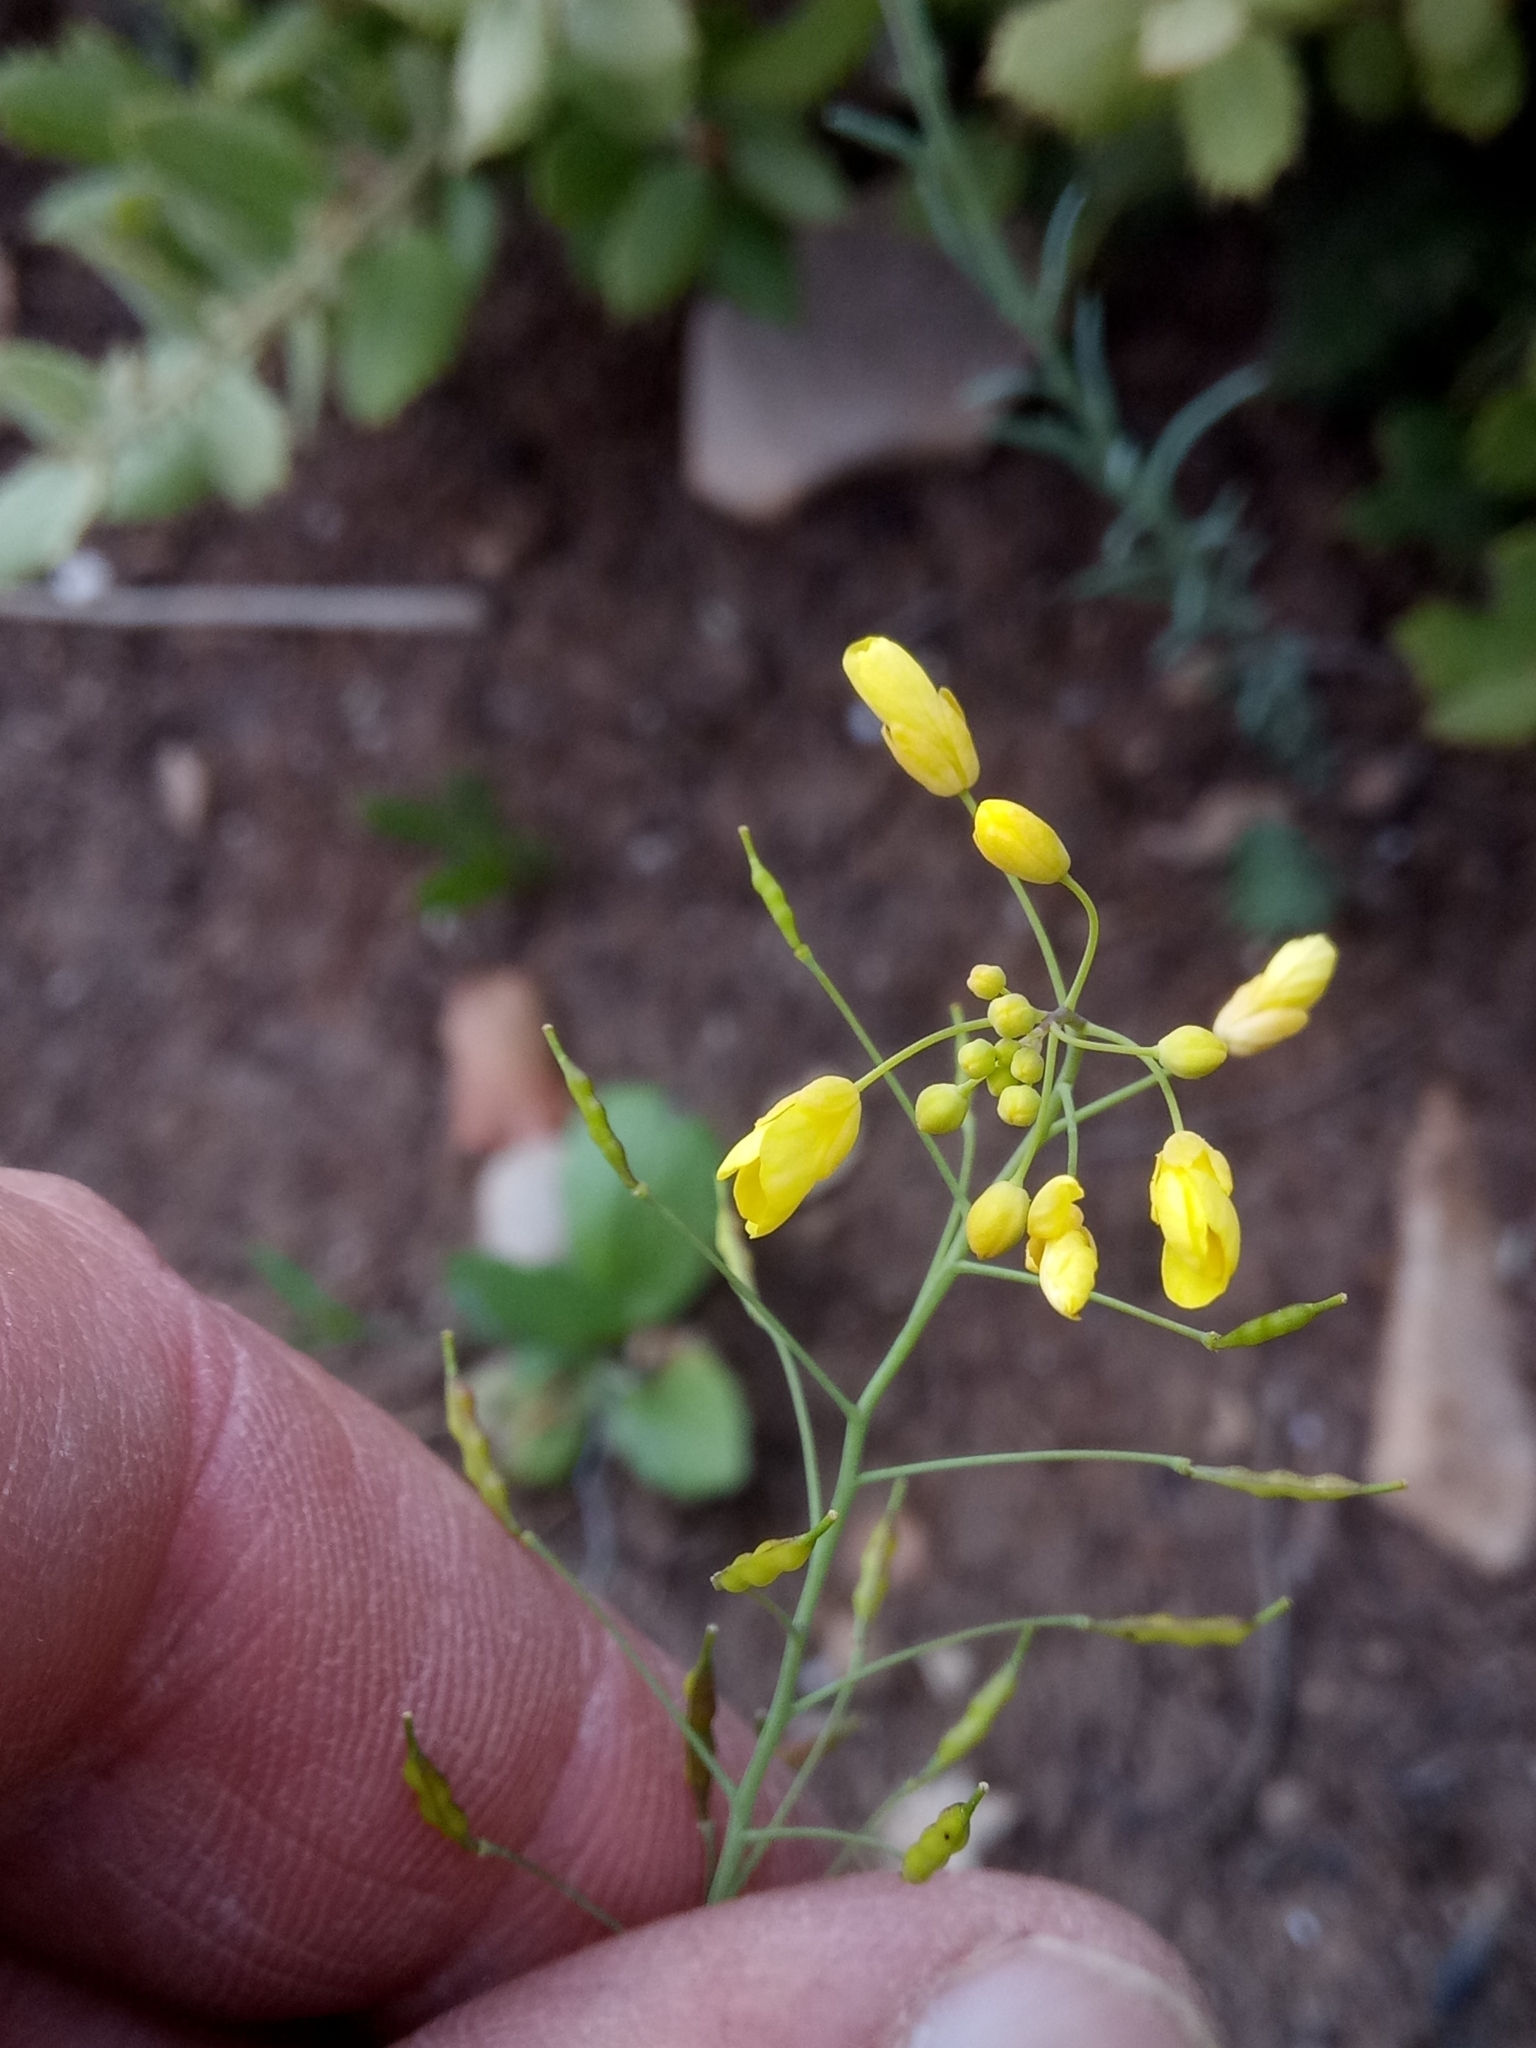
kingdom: Plantae
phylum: Tracheophyta
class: Magnoliopsida
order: Brassicales
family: Brassicaceae
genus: Brassica
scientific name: Brassica souliei
